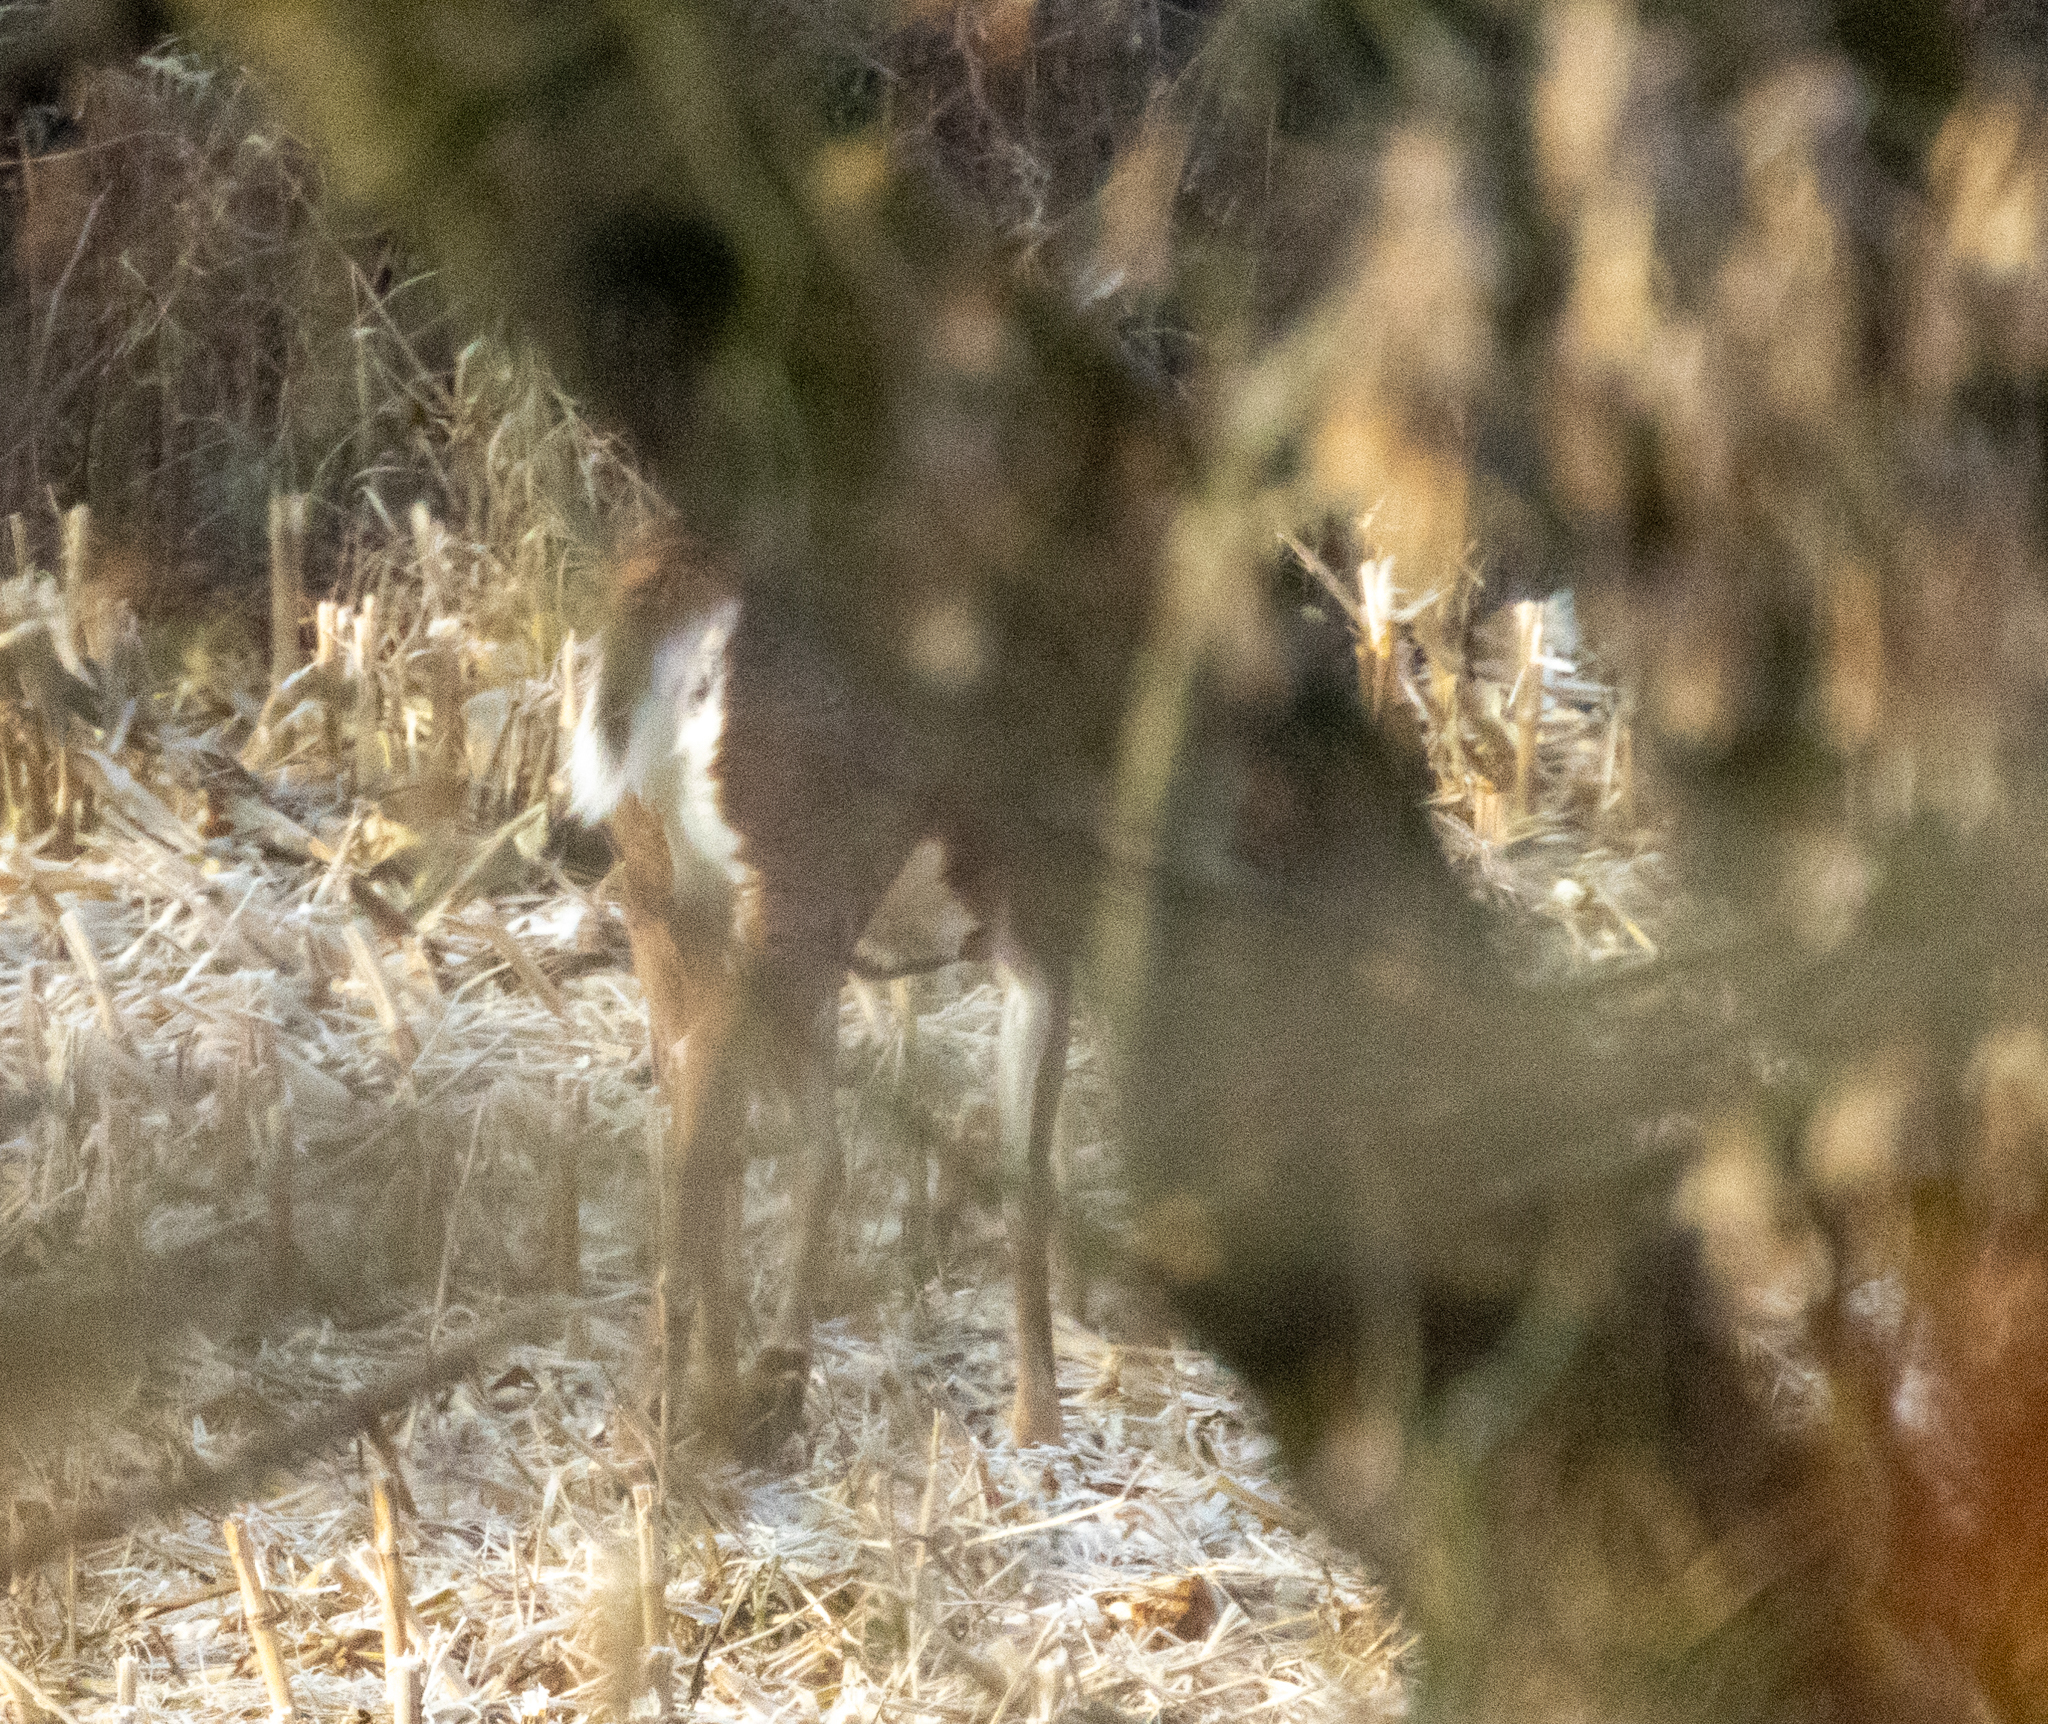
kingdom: Animalia
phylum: Chordata
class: Mammalia
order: Artiodactyla
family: Cervidae
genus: Odocoileus
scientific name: Odocoileus virginianus
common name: White-tailed deer
